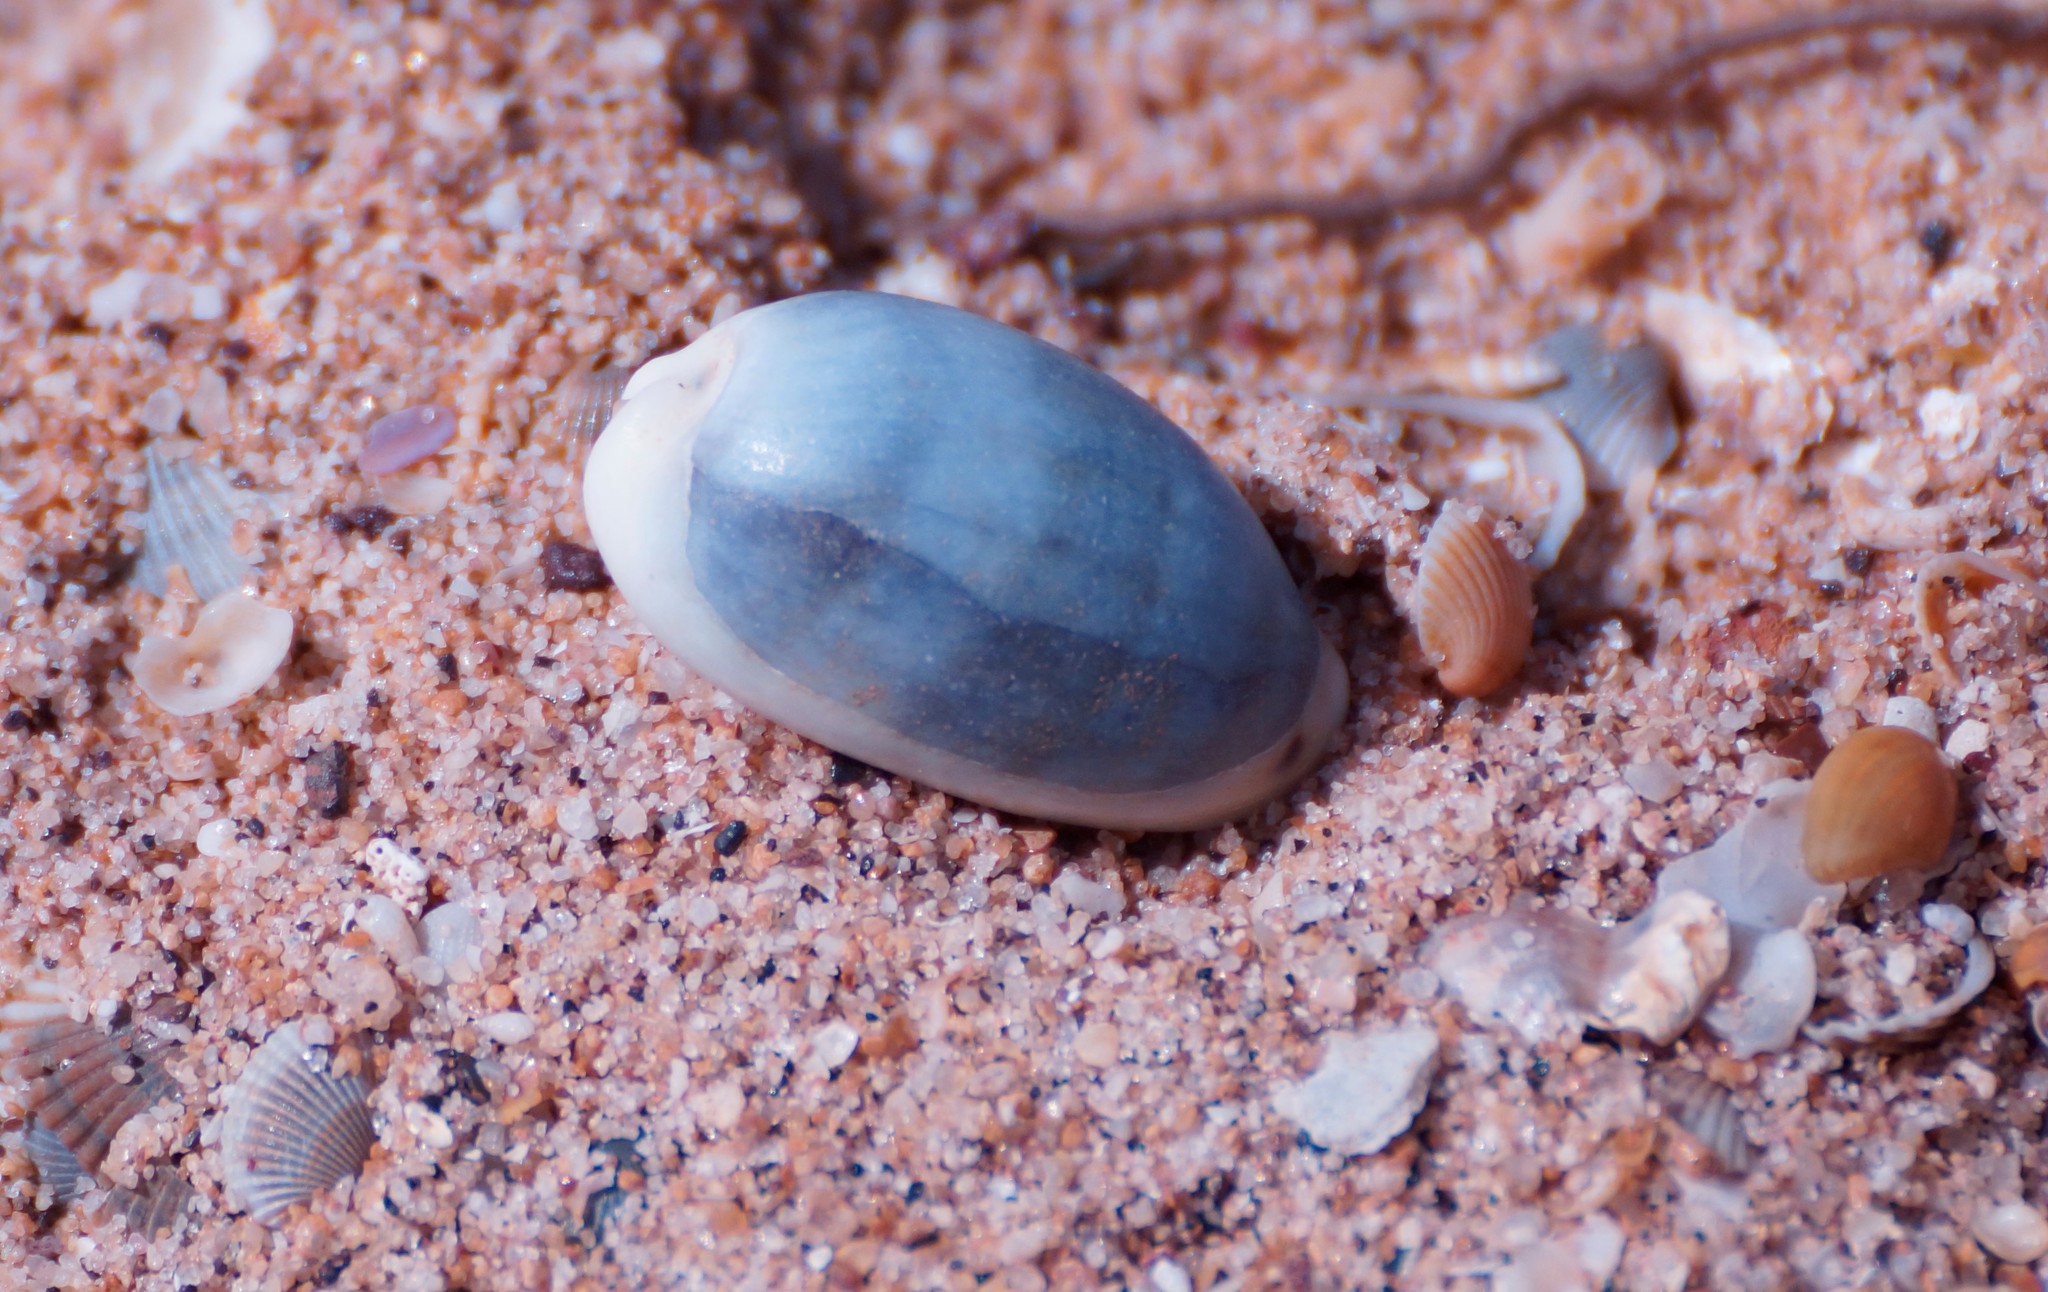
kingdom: Animalia
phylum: Mollusca
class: Gastropoda
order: Littorinimorpha
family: Cypraeidae
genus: Erronea
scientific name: Erronea errones
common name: Mistaken cowrie
